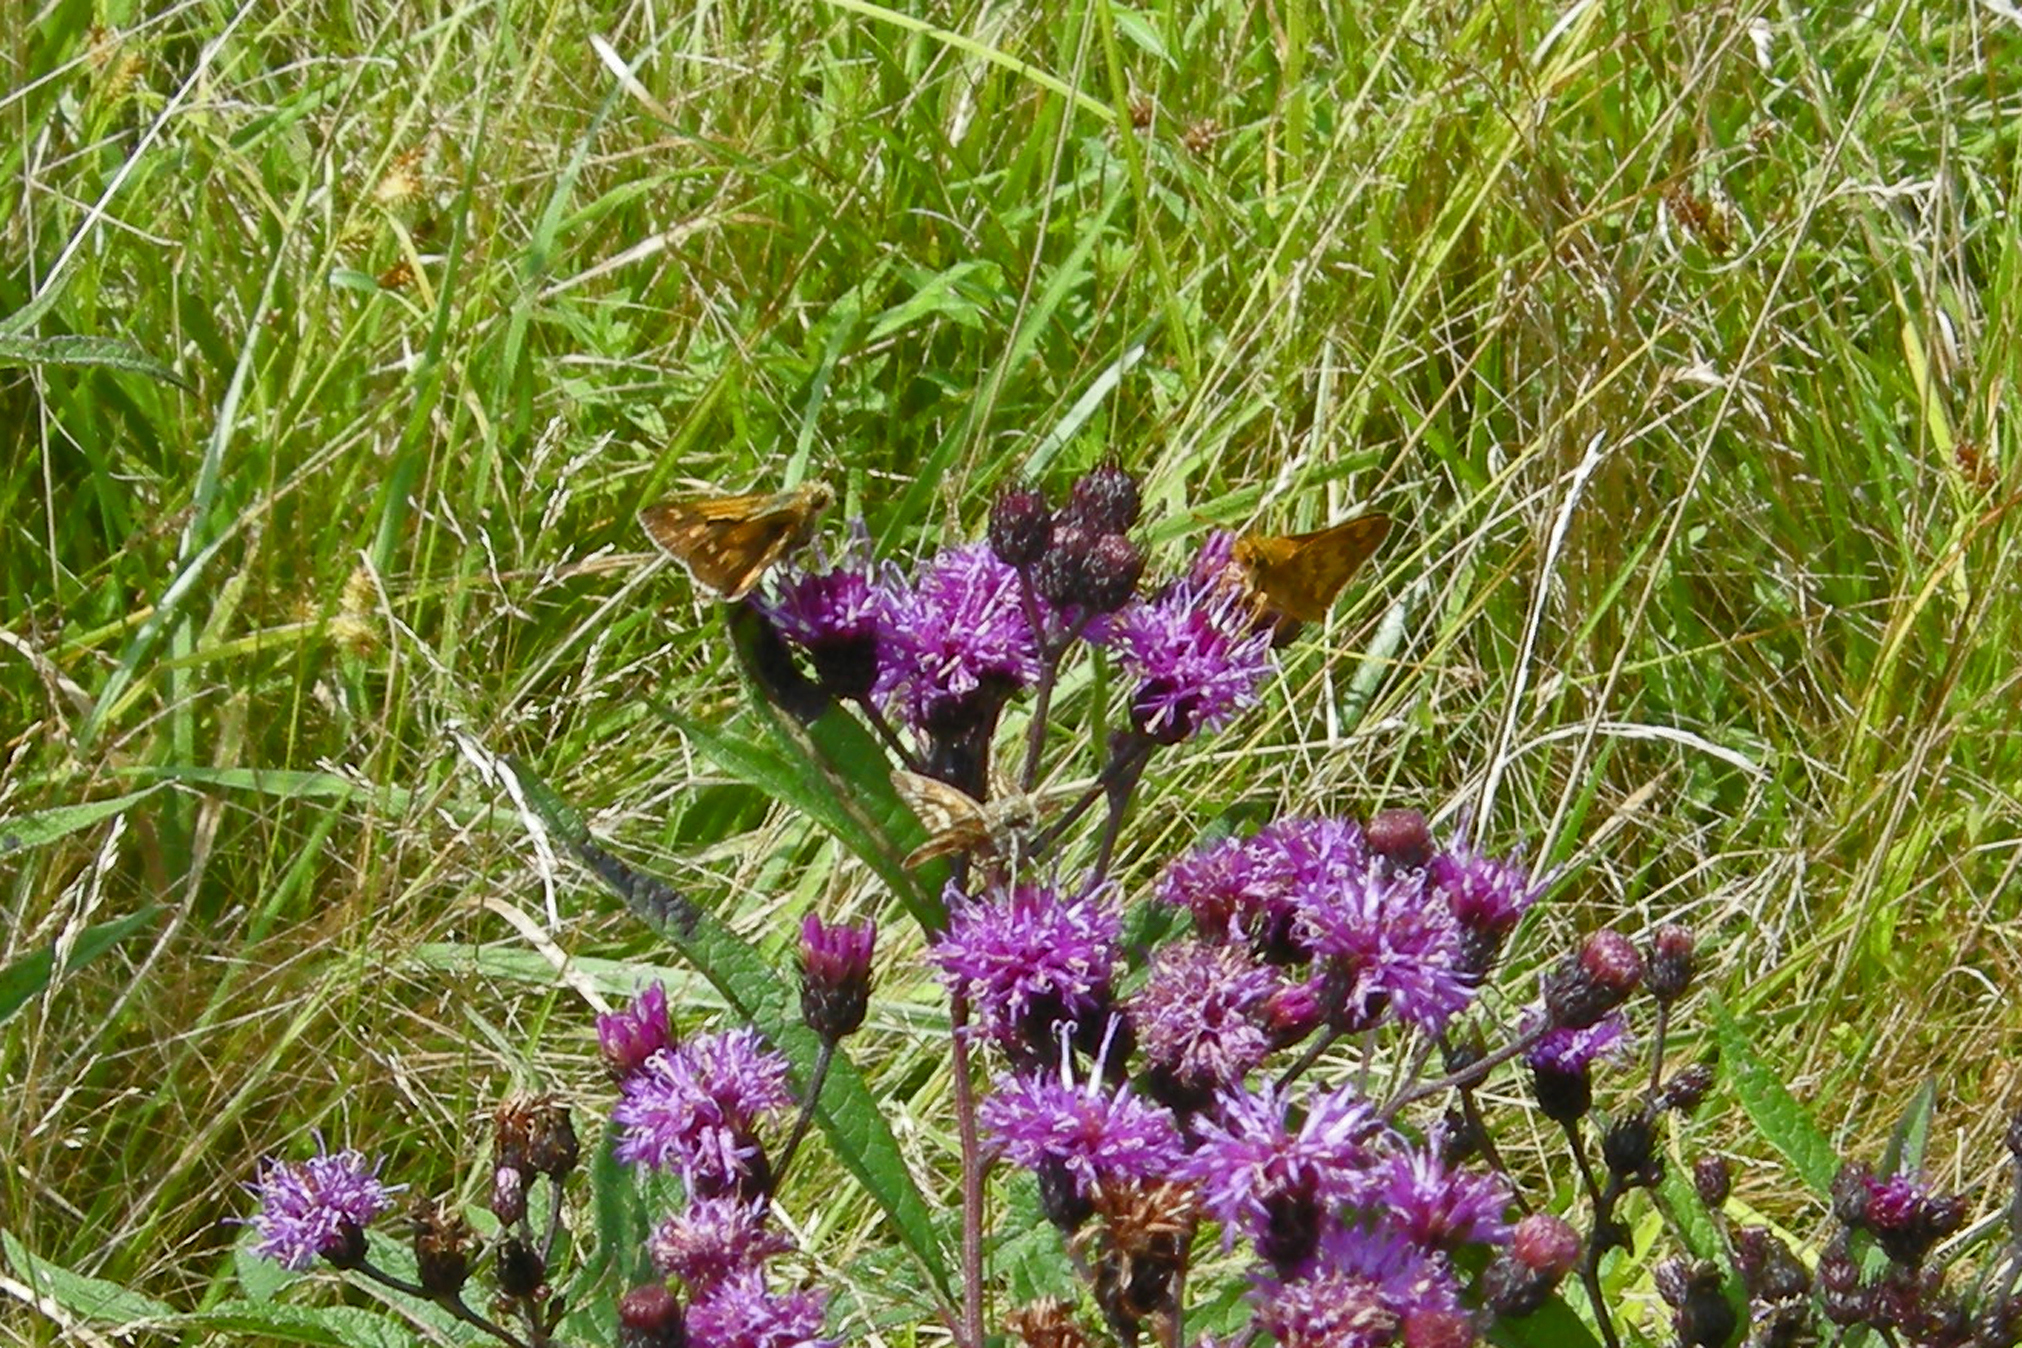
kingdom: Animalia
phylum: Arthropoda
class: Insecta
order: Lepidoptera
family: Hesperiidae
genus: Polites
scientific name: Polites coras
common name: Peck's skipper
